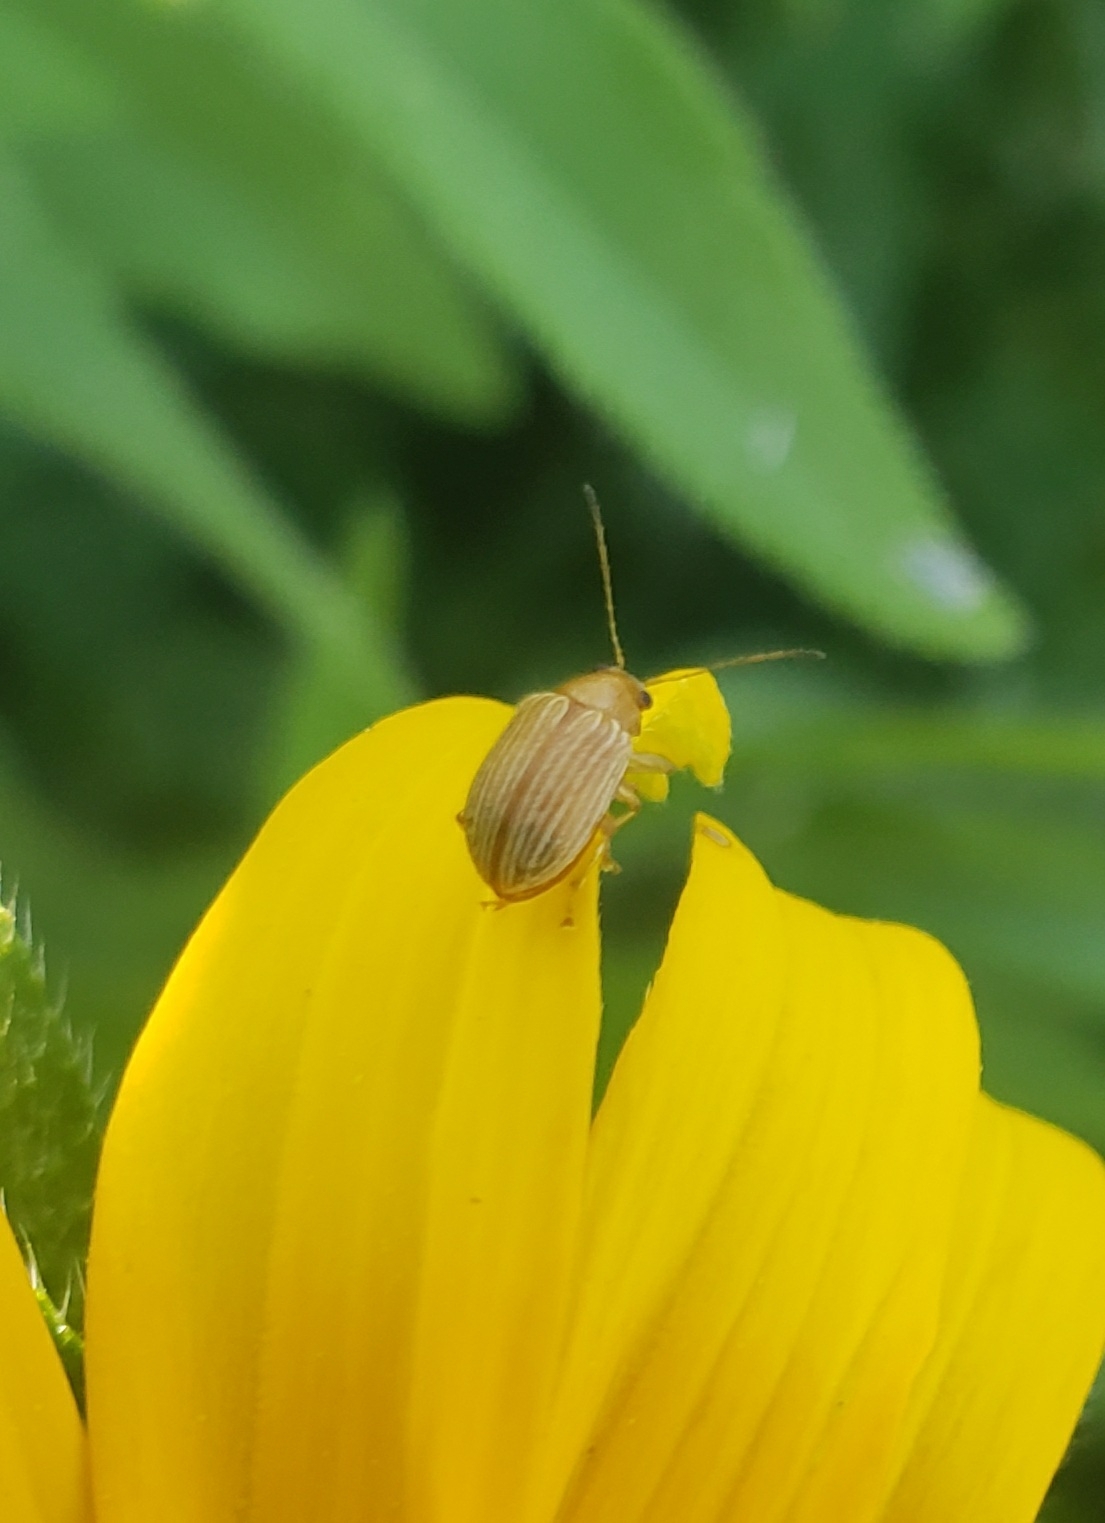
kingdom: Animalia
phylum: Arthropoda
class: Insecta
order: Coleoptera
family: Chrysomelidae
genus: Colaspis
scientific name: Colaspis brunnea
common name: Grape colaspis
